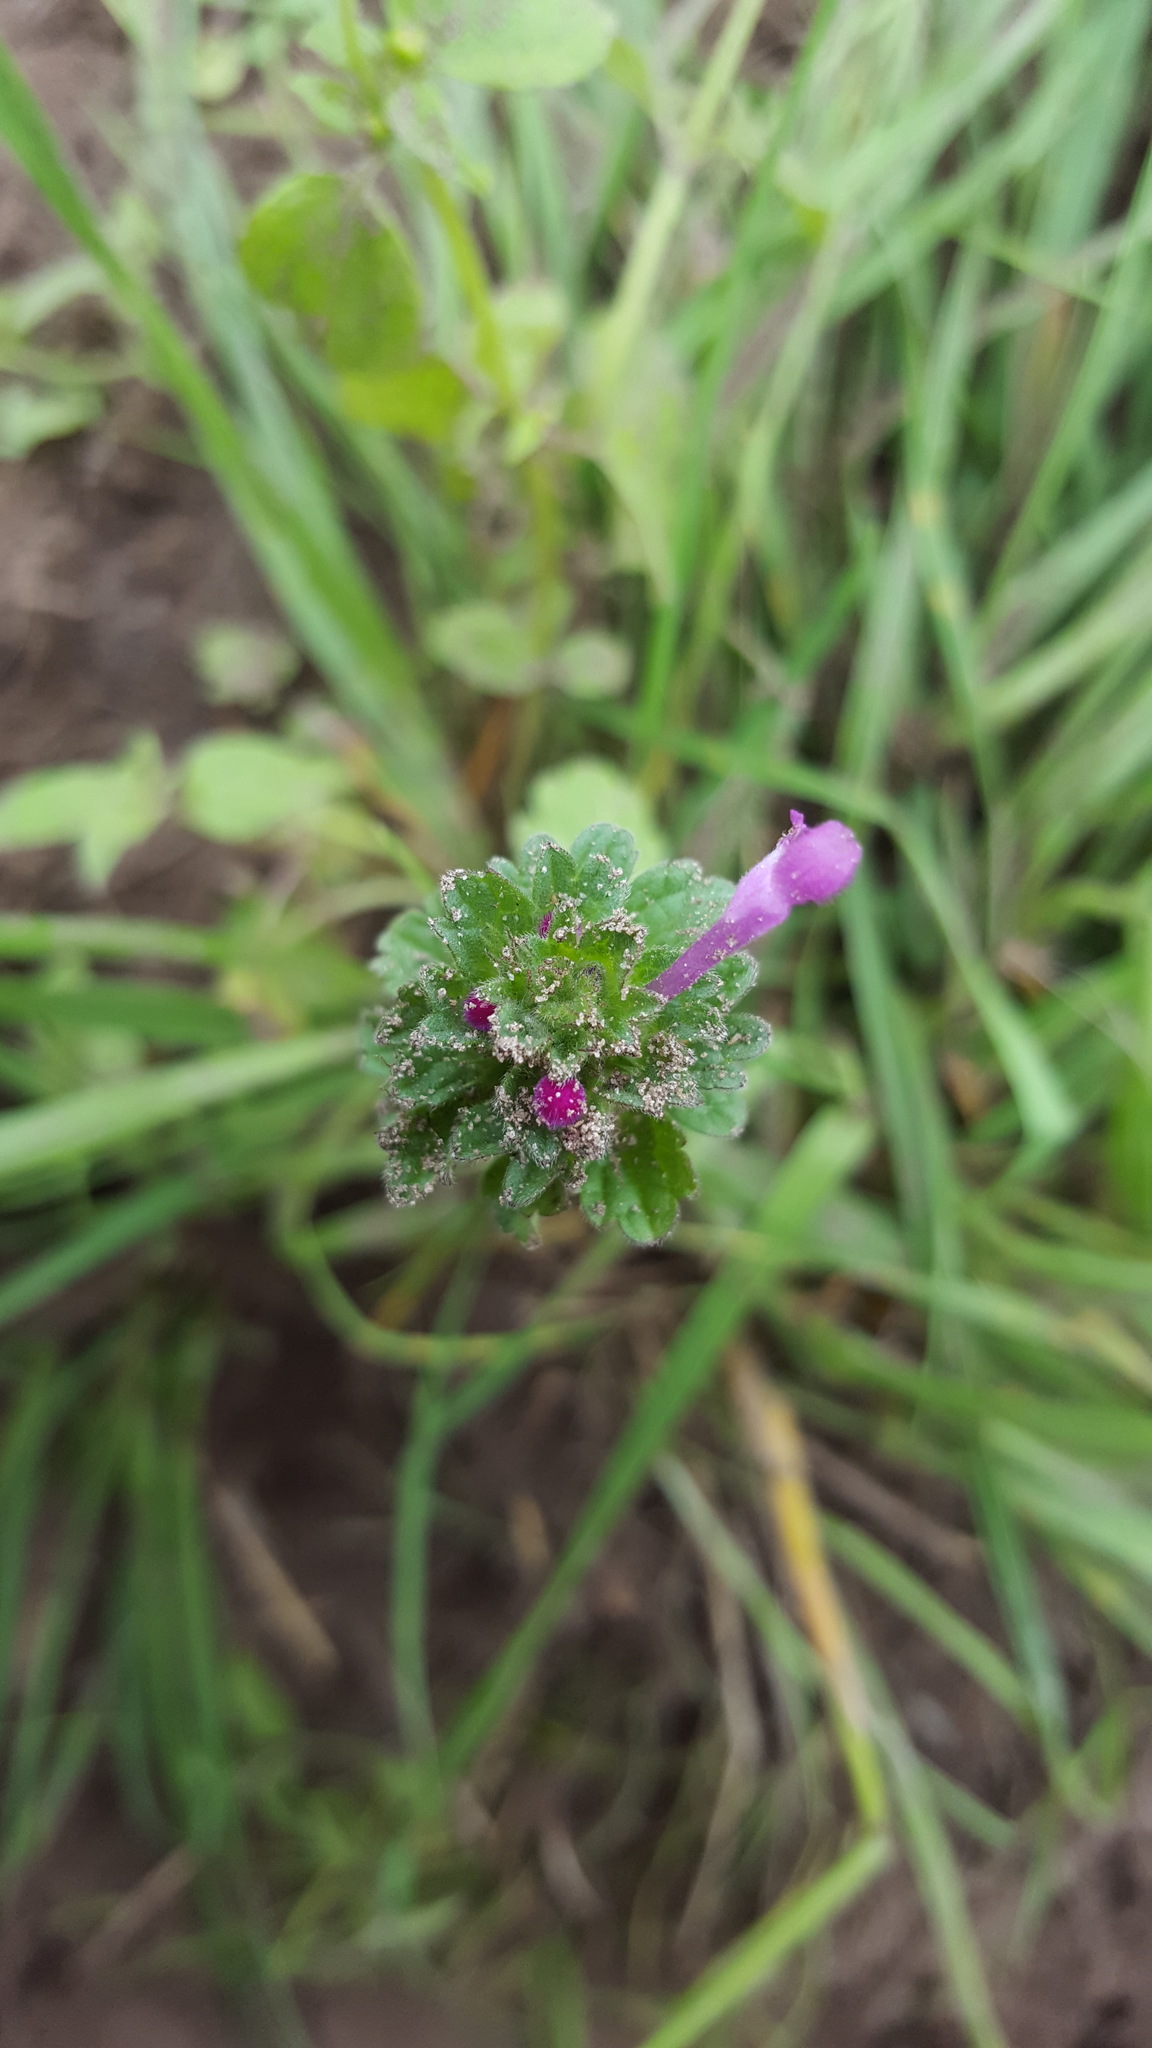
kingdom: Plantae
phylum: Tracheophyta
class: Magnoliopsida
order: Lamiales
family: Lamiaceae
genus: Lamium
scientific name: Lamium amplexicaule
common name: Henbit dead-nettle
